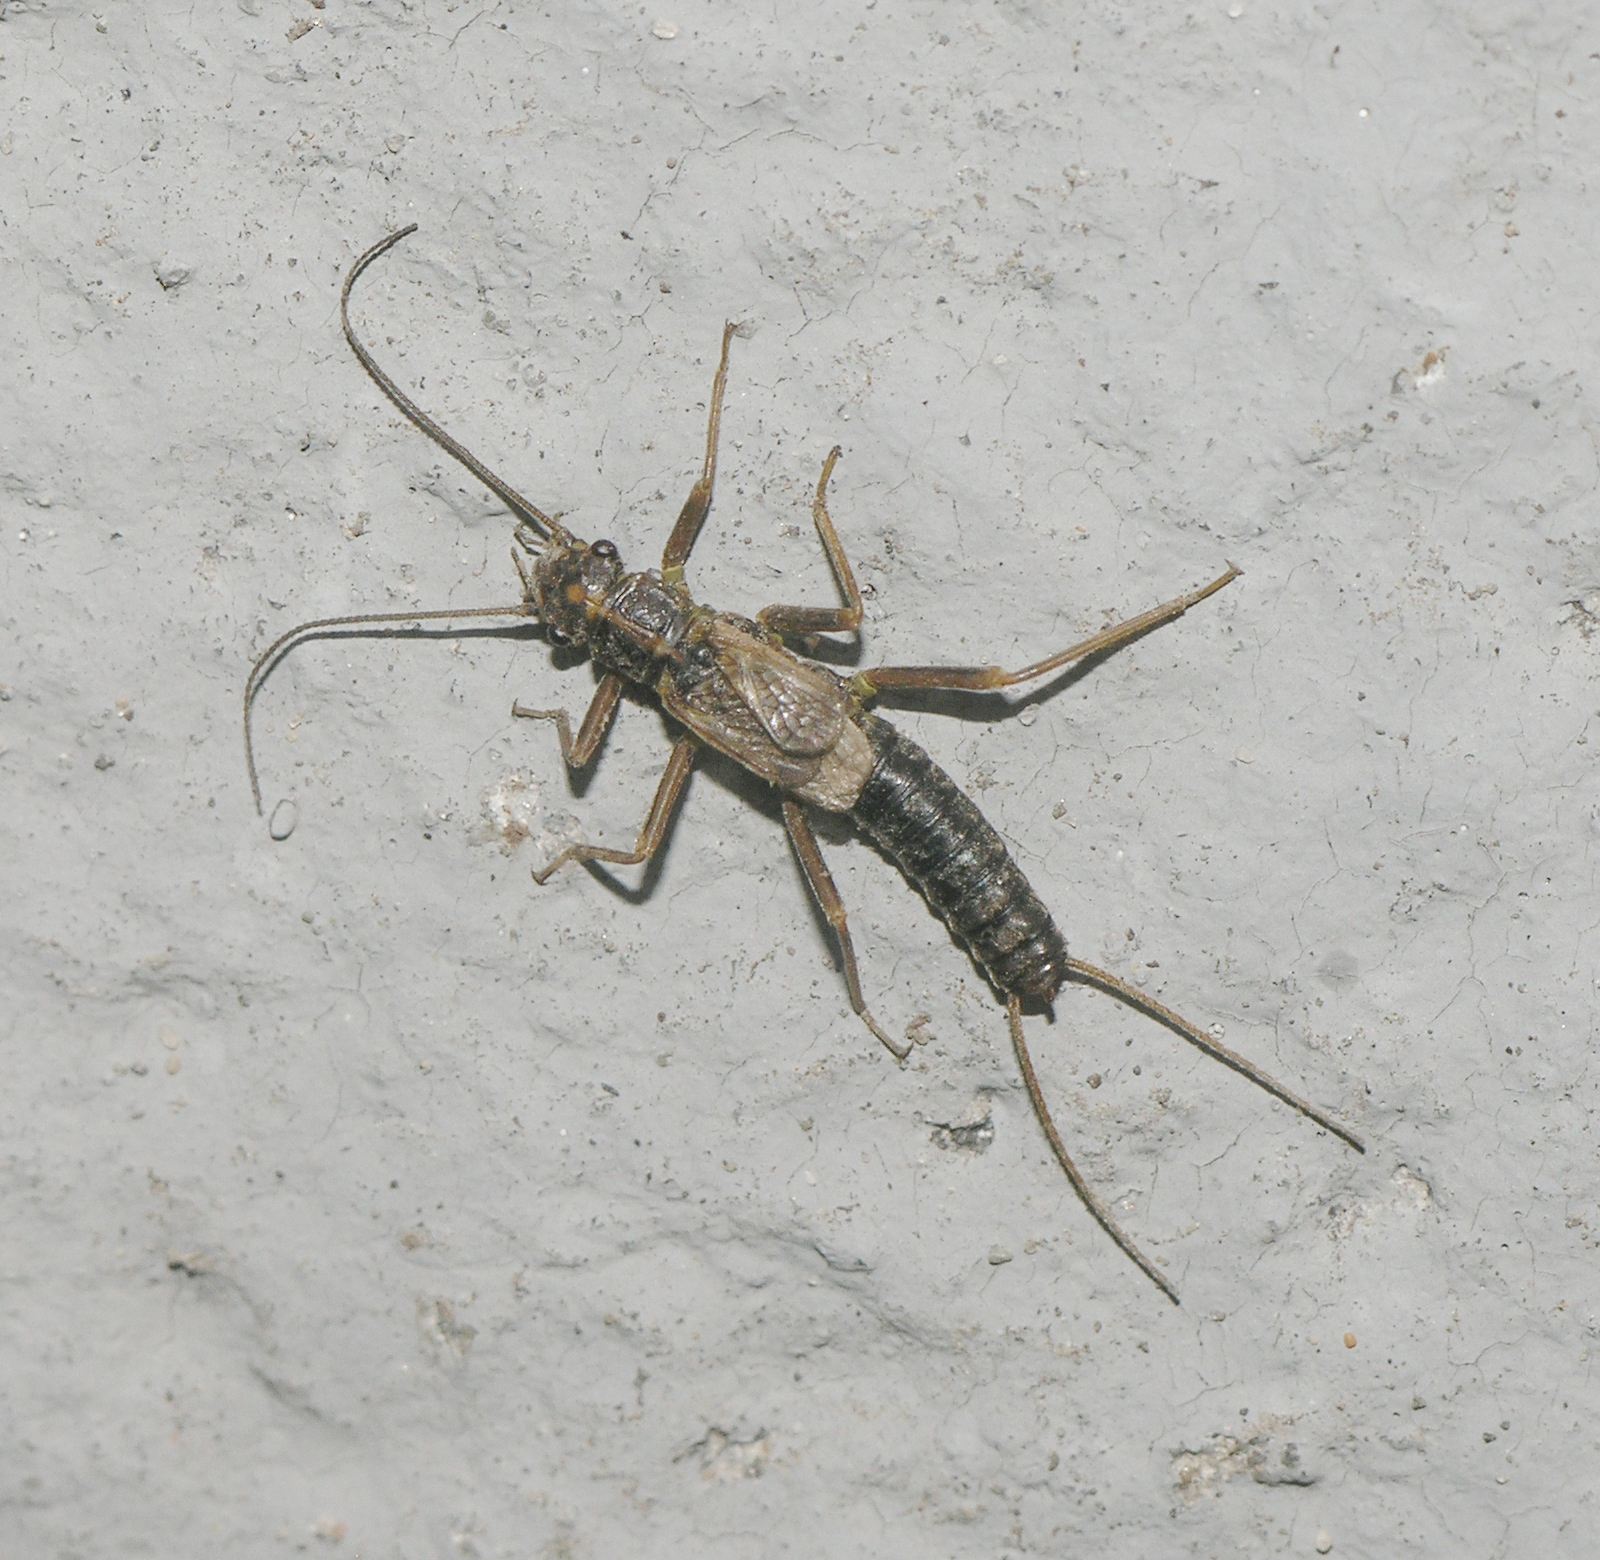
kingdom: Animalia
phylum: Arthropoda
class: Insecta
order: Plecoptera
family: Perlodidae
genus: Diura
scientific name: Diura bicaudata
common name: Lapland springfly
